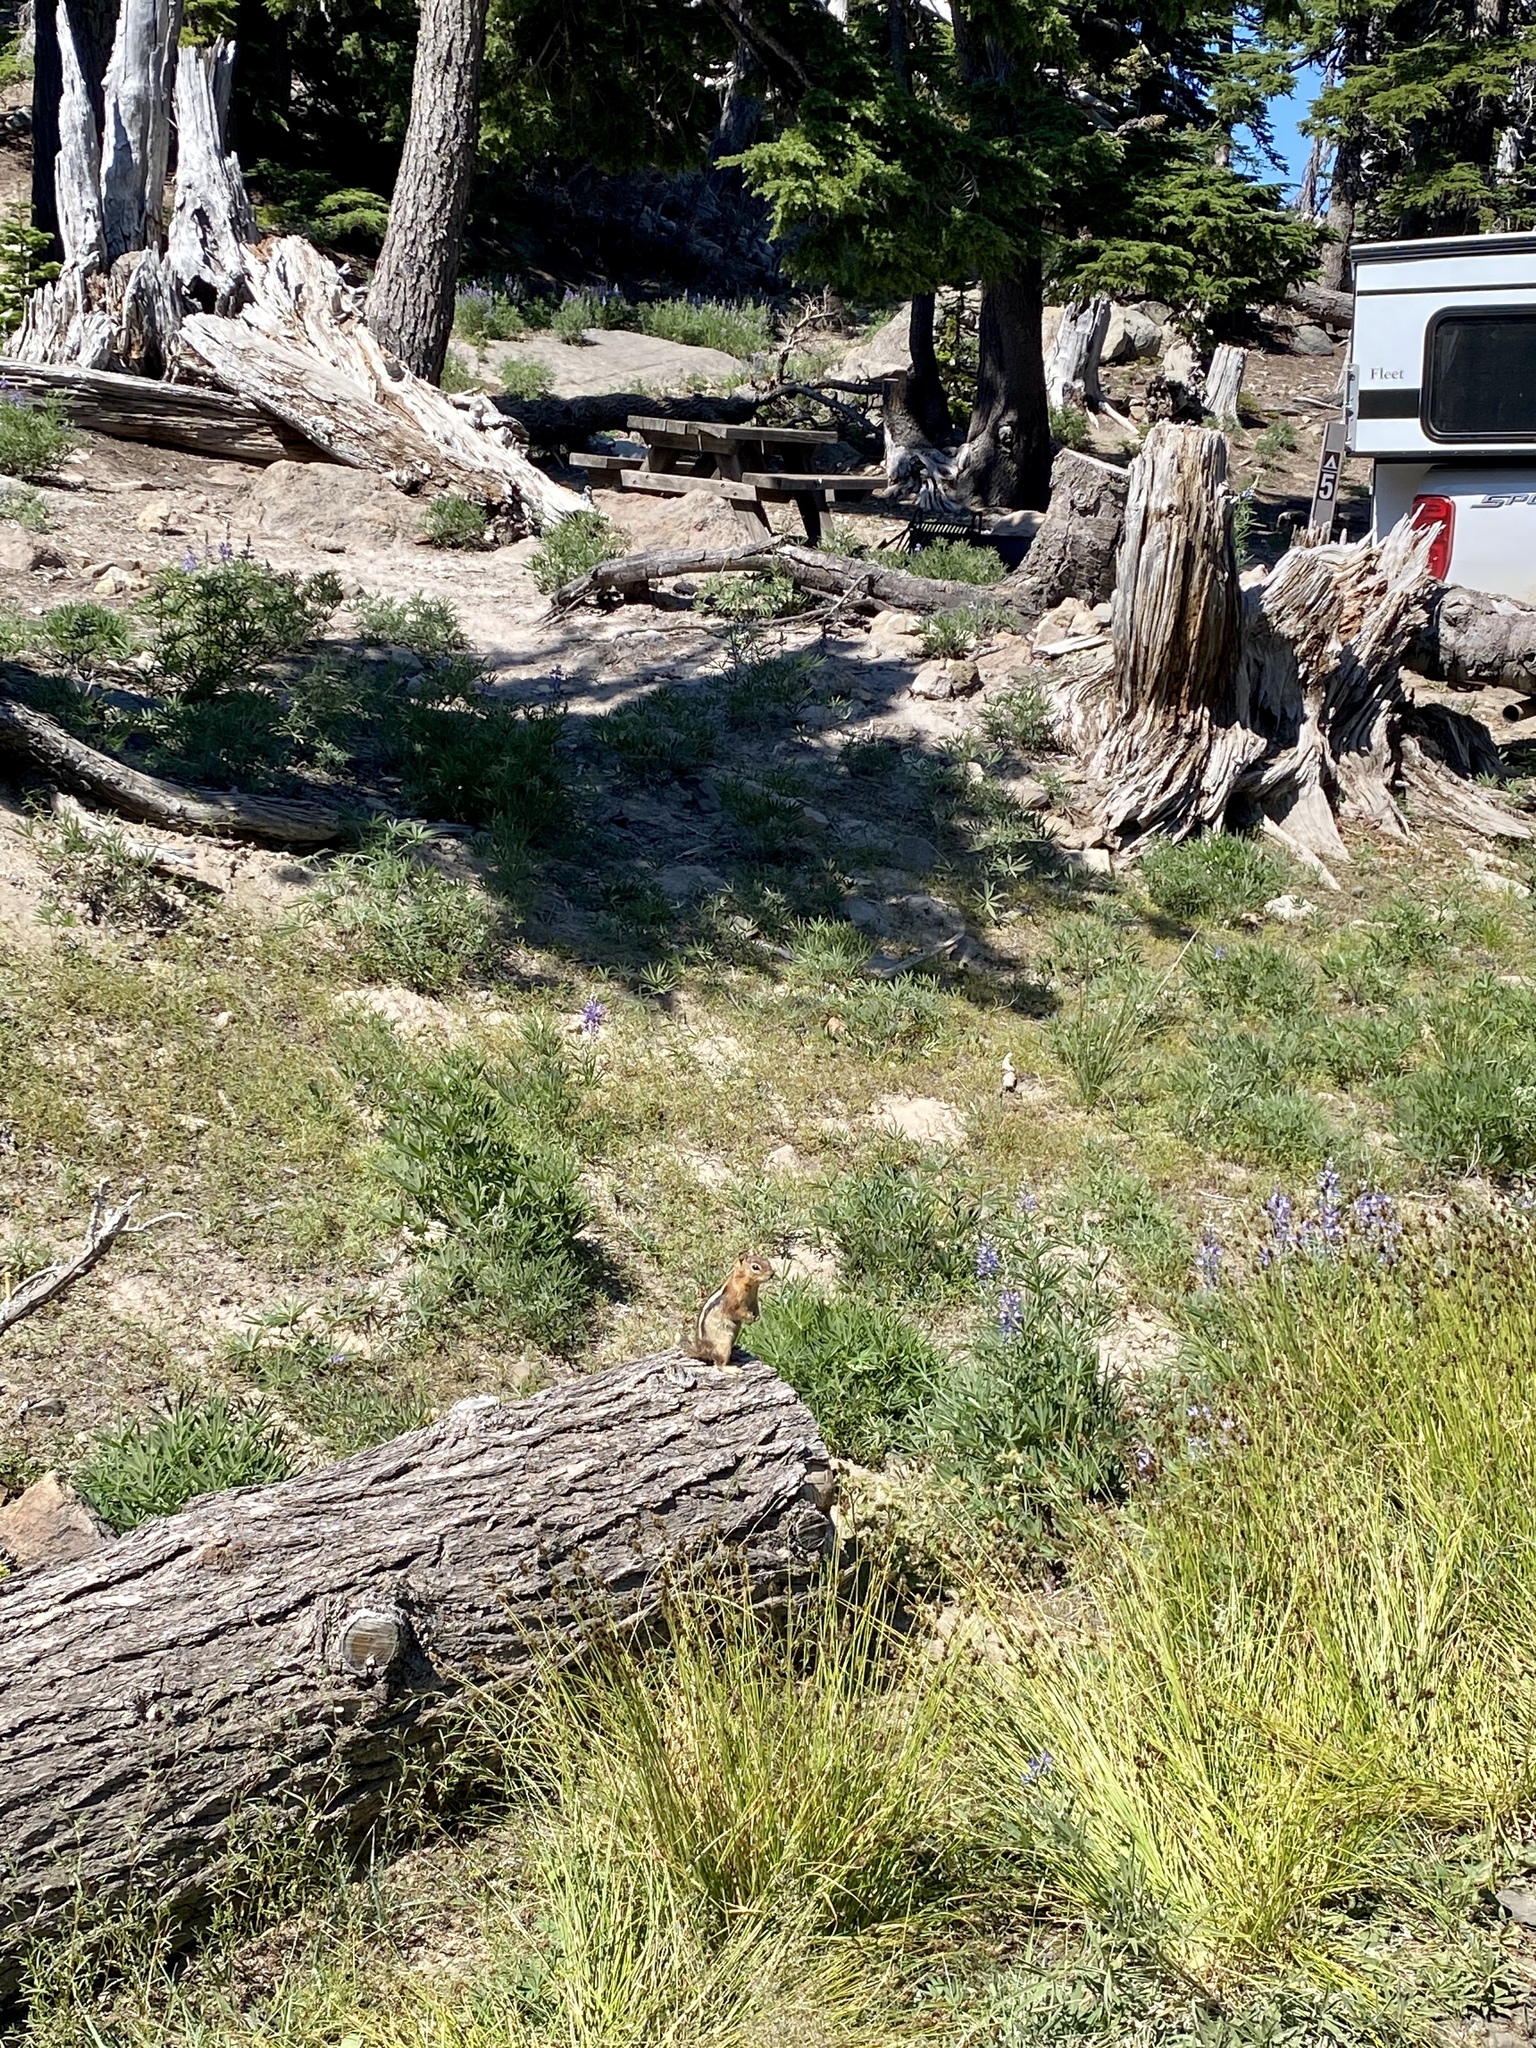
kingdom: Animalia
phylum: Chordata
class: Mammalia
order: Rodentia
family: Sciuridae
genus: Callospermophilus
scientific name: Callospermophilus lateralis
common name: Golden-mantled ground squirrel
